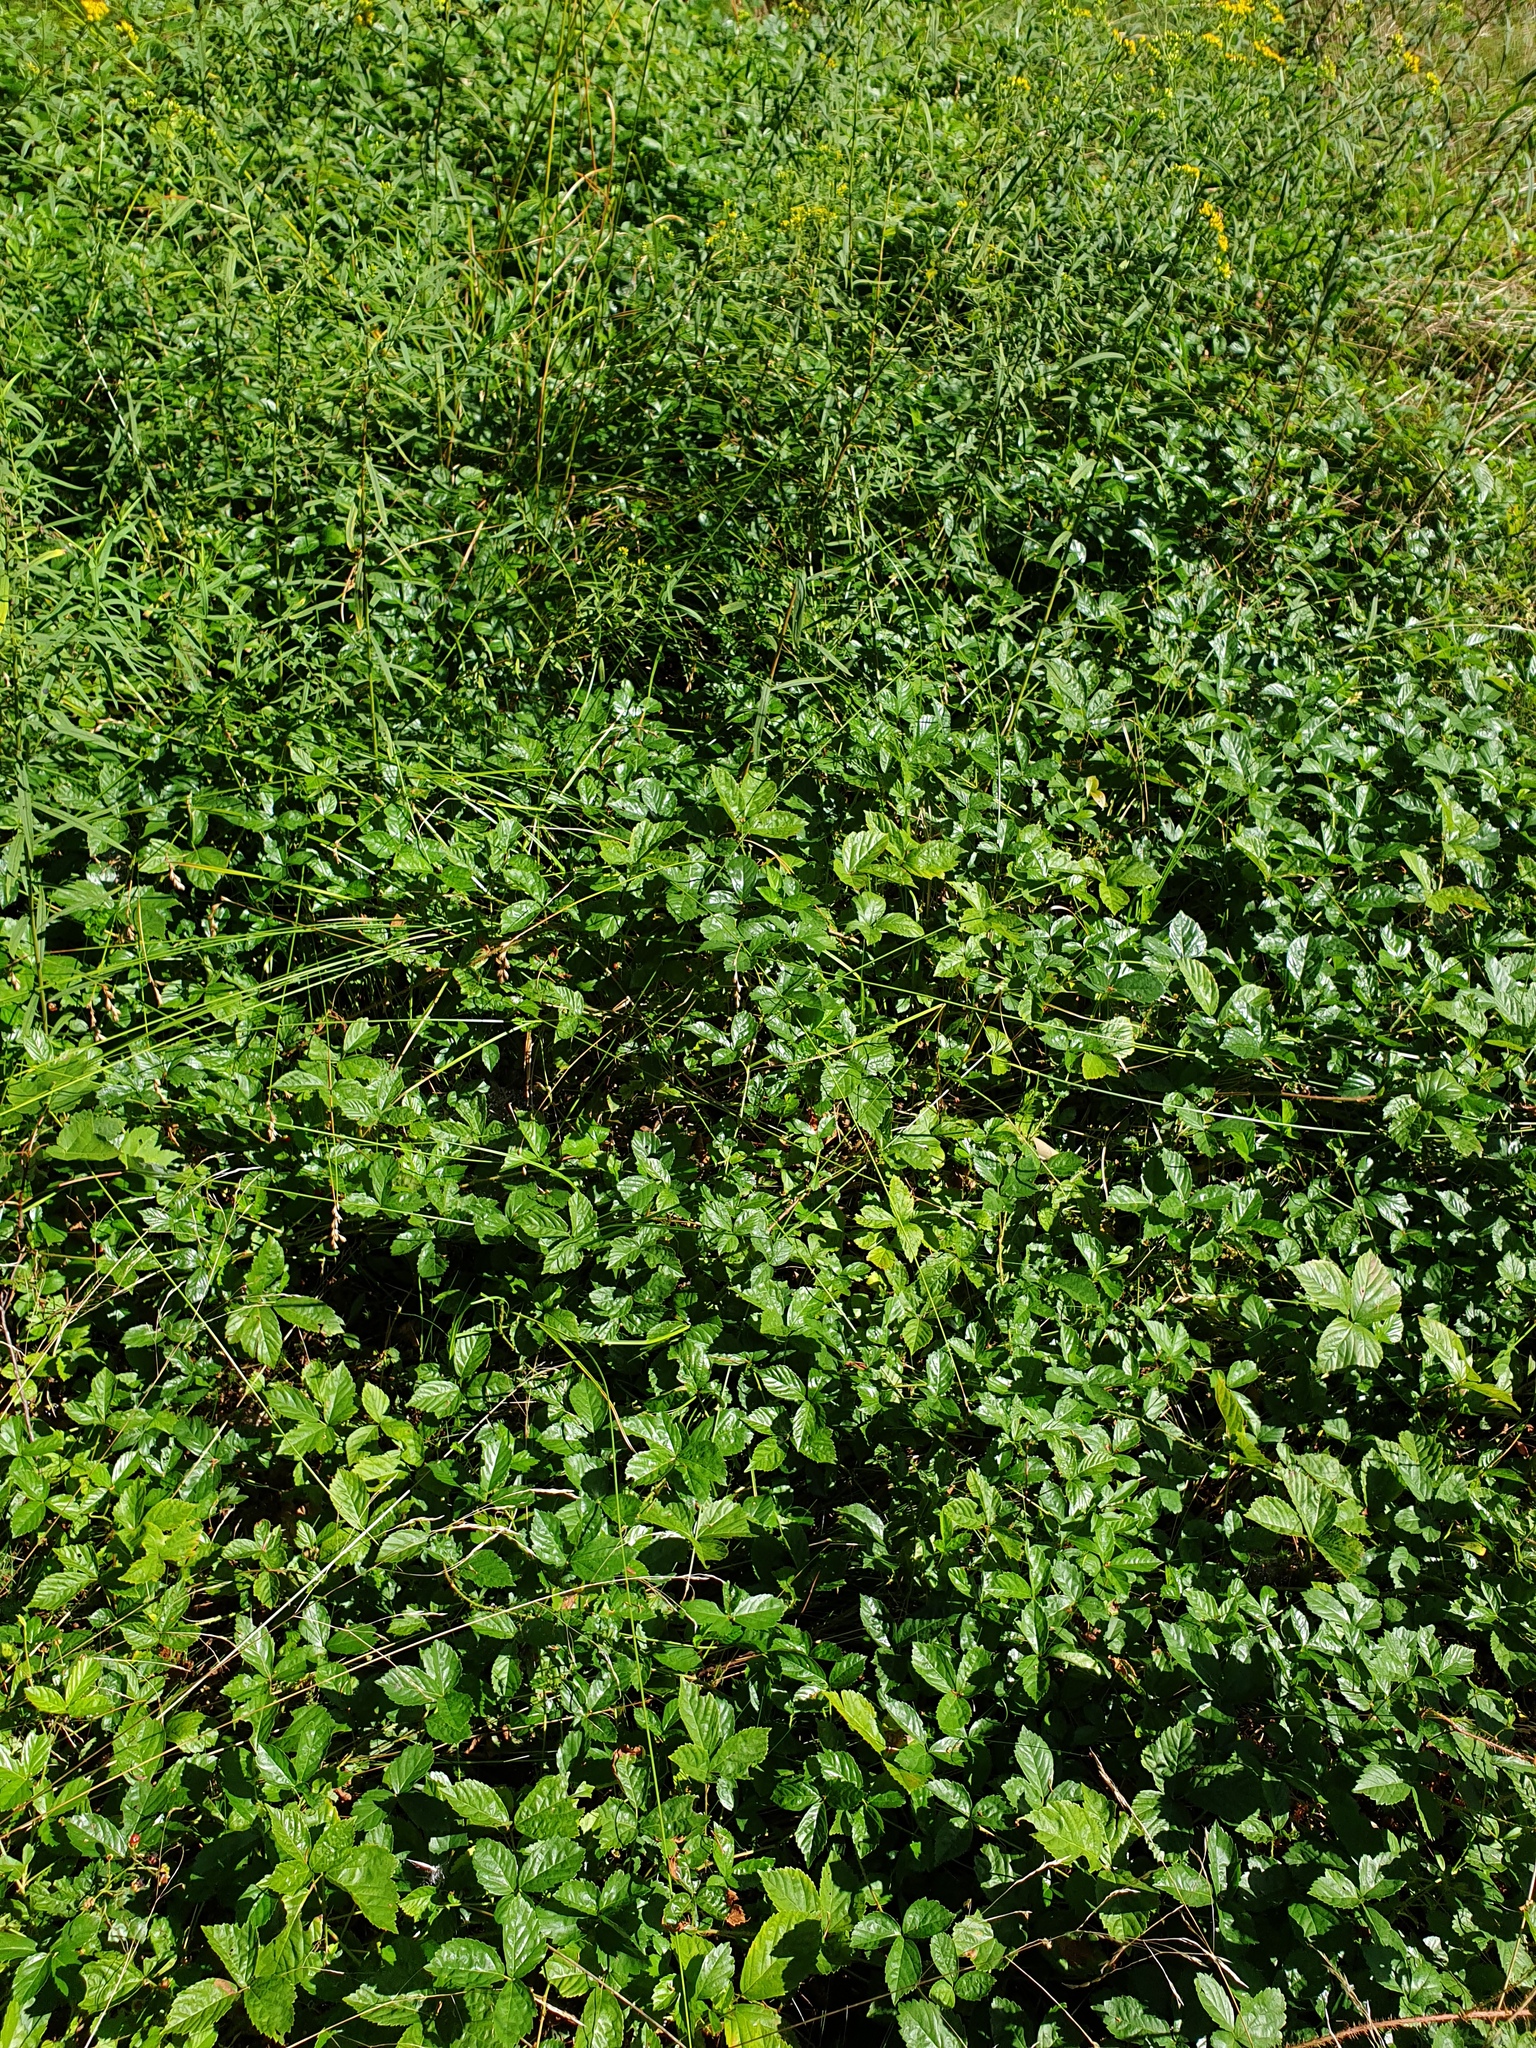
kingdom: Plantae
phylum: Tracheophyta
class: Magnoliopsida
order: Rosales
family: Rosaceae
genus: Rubus
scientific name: Rubus hispidus
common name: Running blackberry
